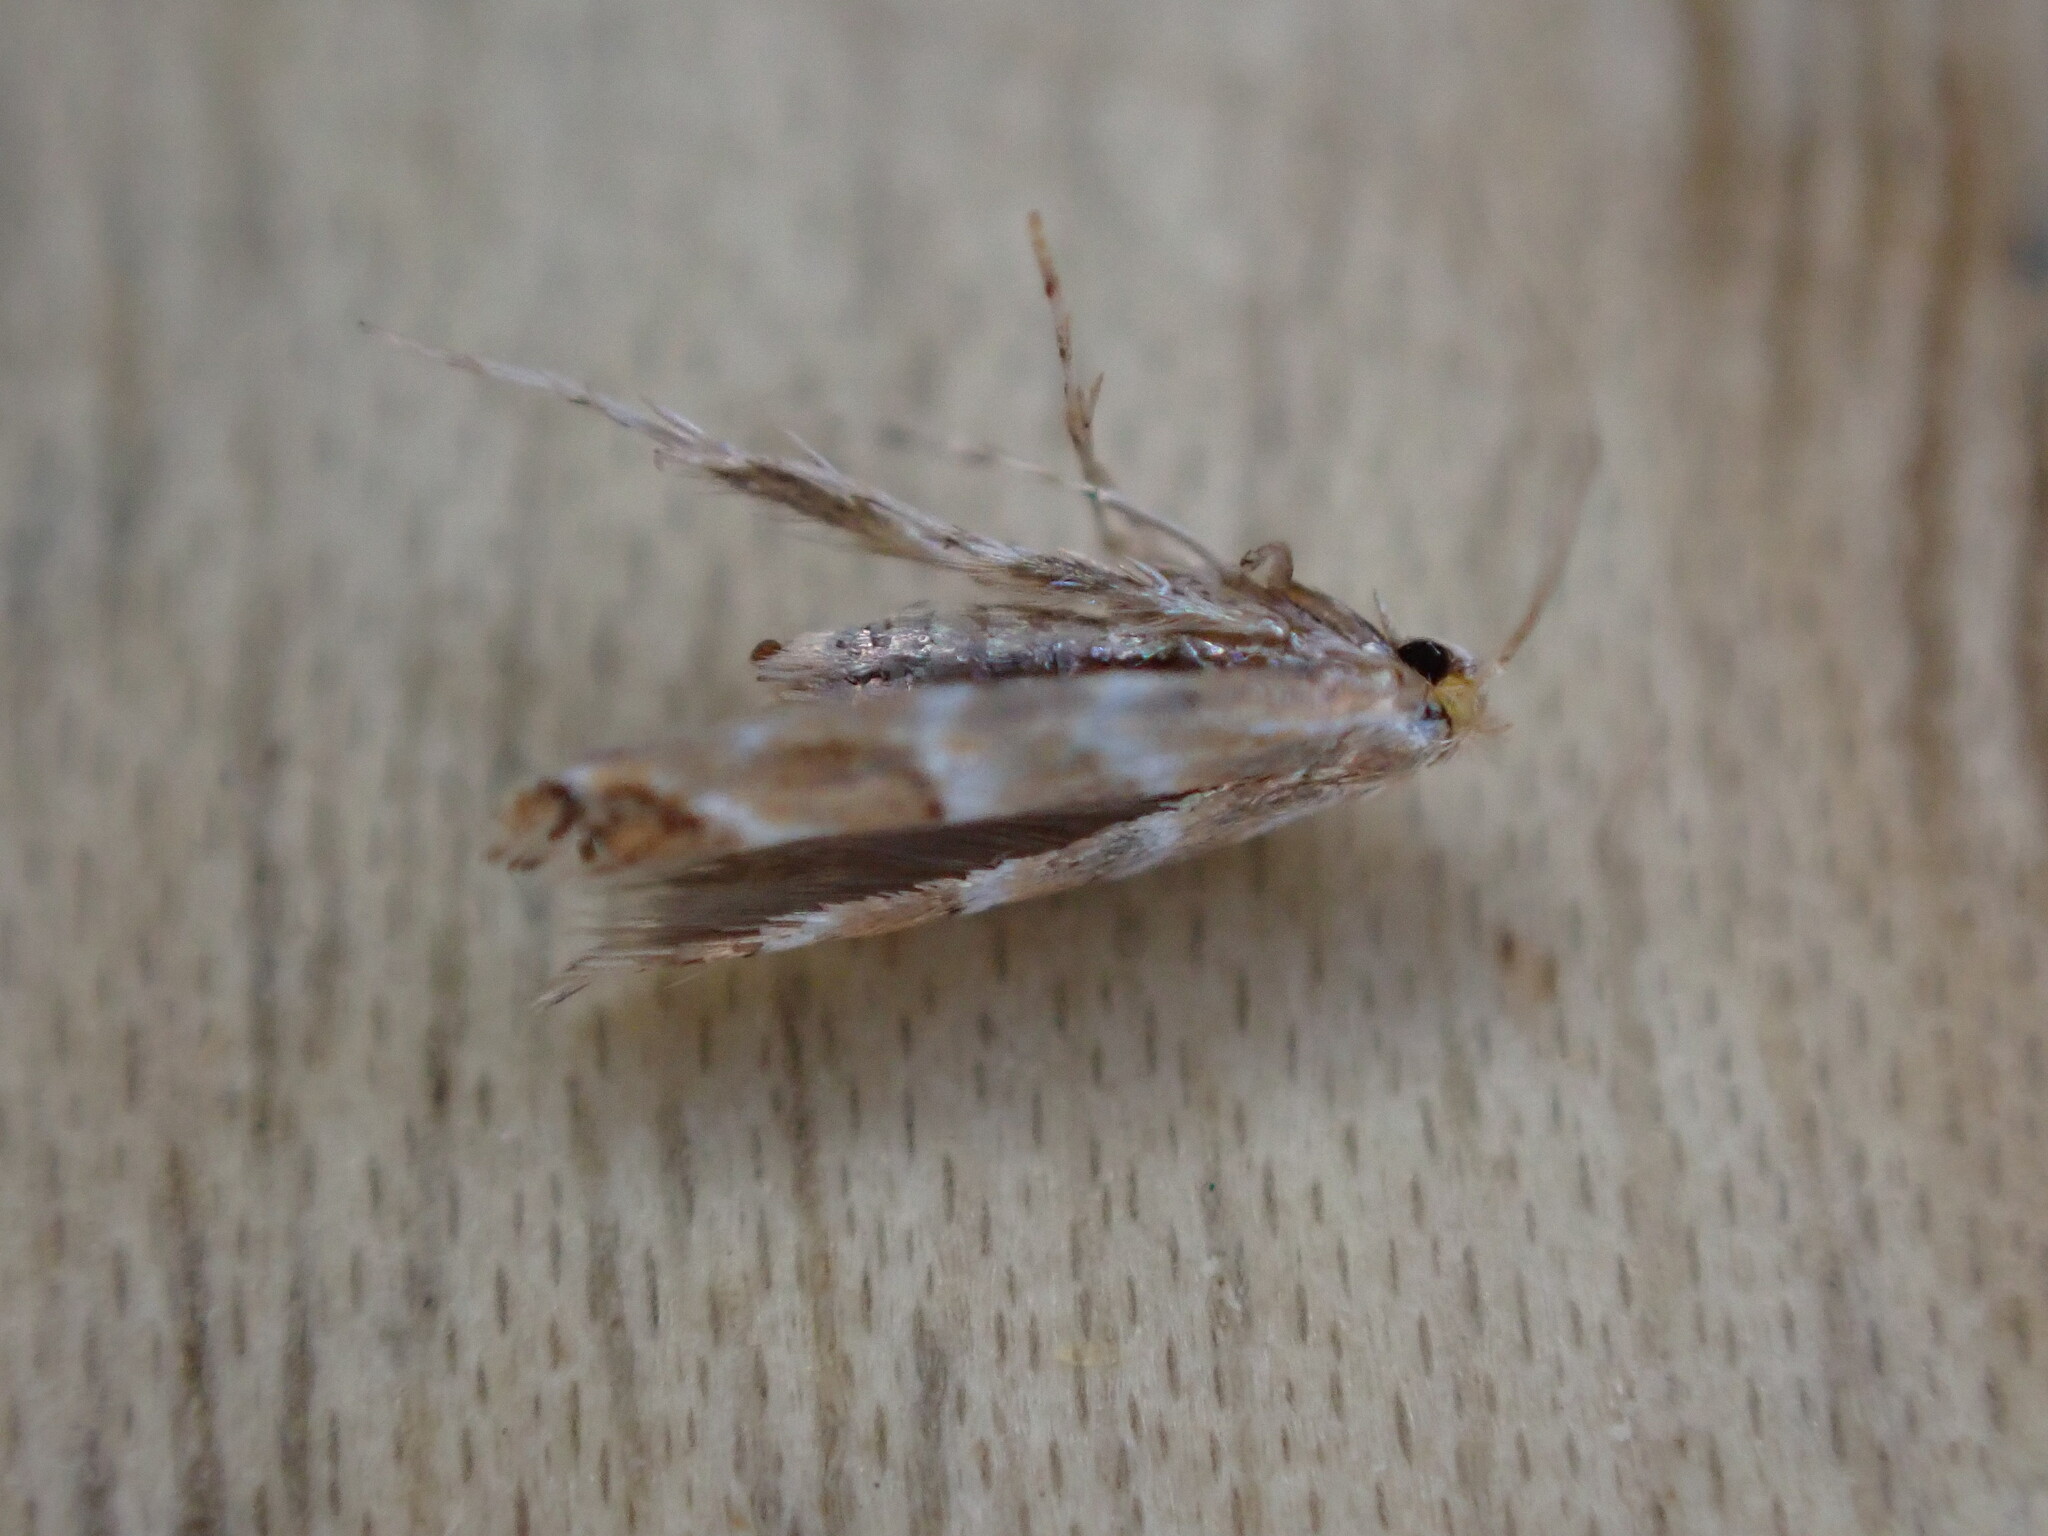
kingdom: Animalia
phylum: Arthropoda
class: Insecta
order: Lepidoptera
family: Gracillariidae
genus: Cameraria
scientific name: Cameraria ohridella
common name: Horse-chestnut leaf-miner
